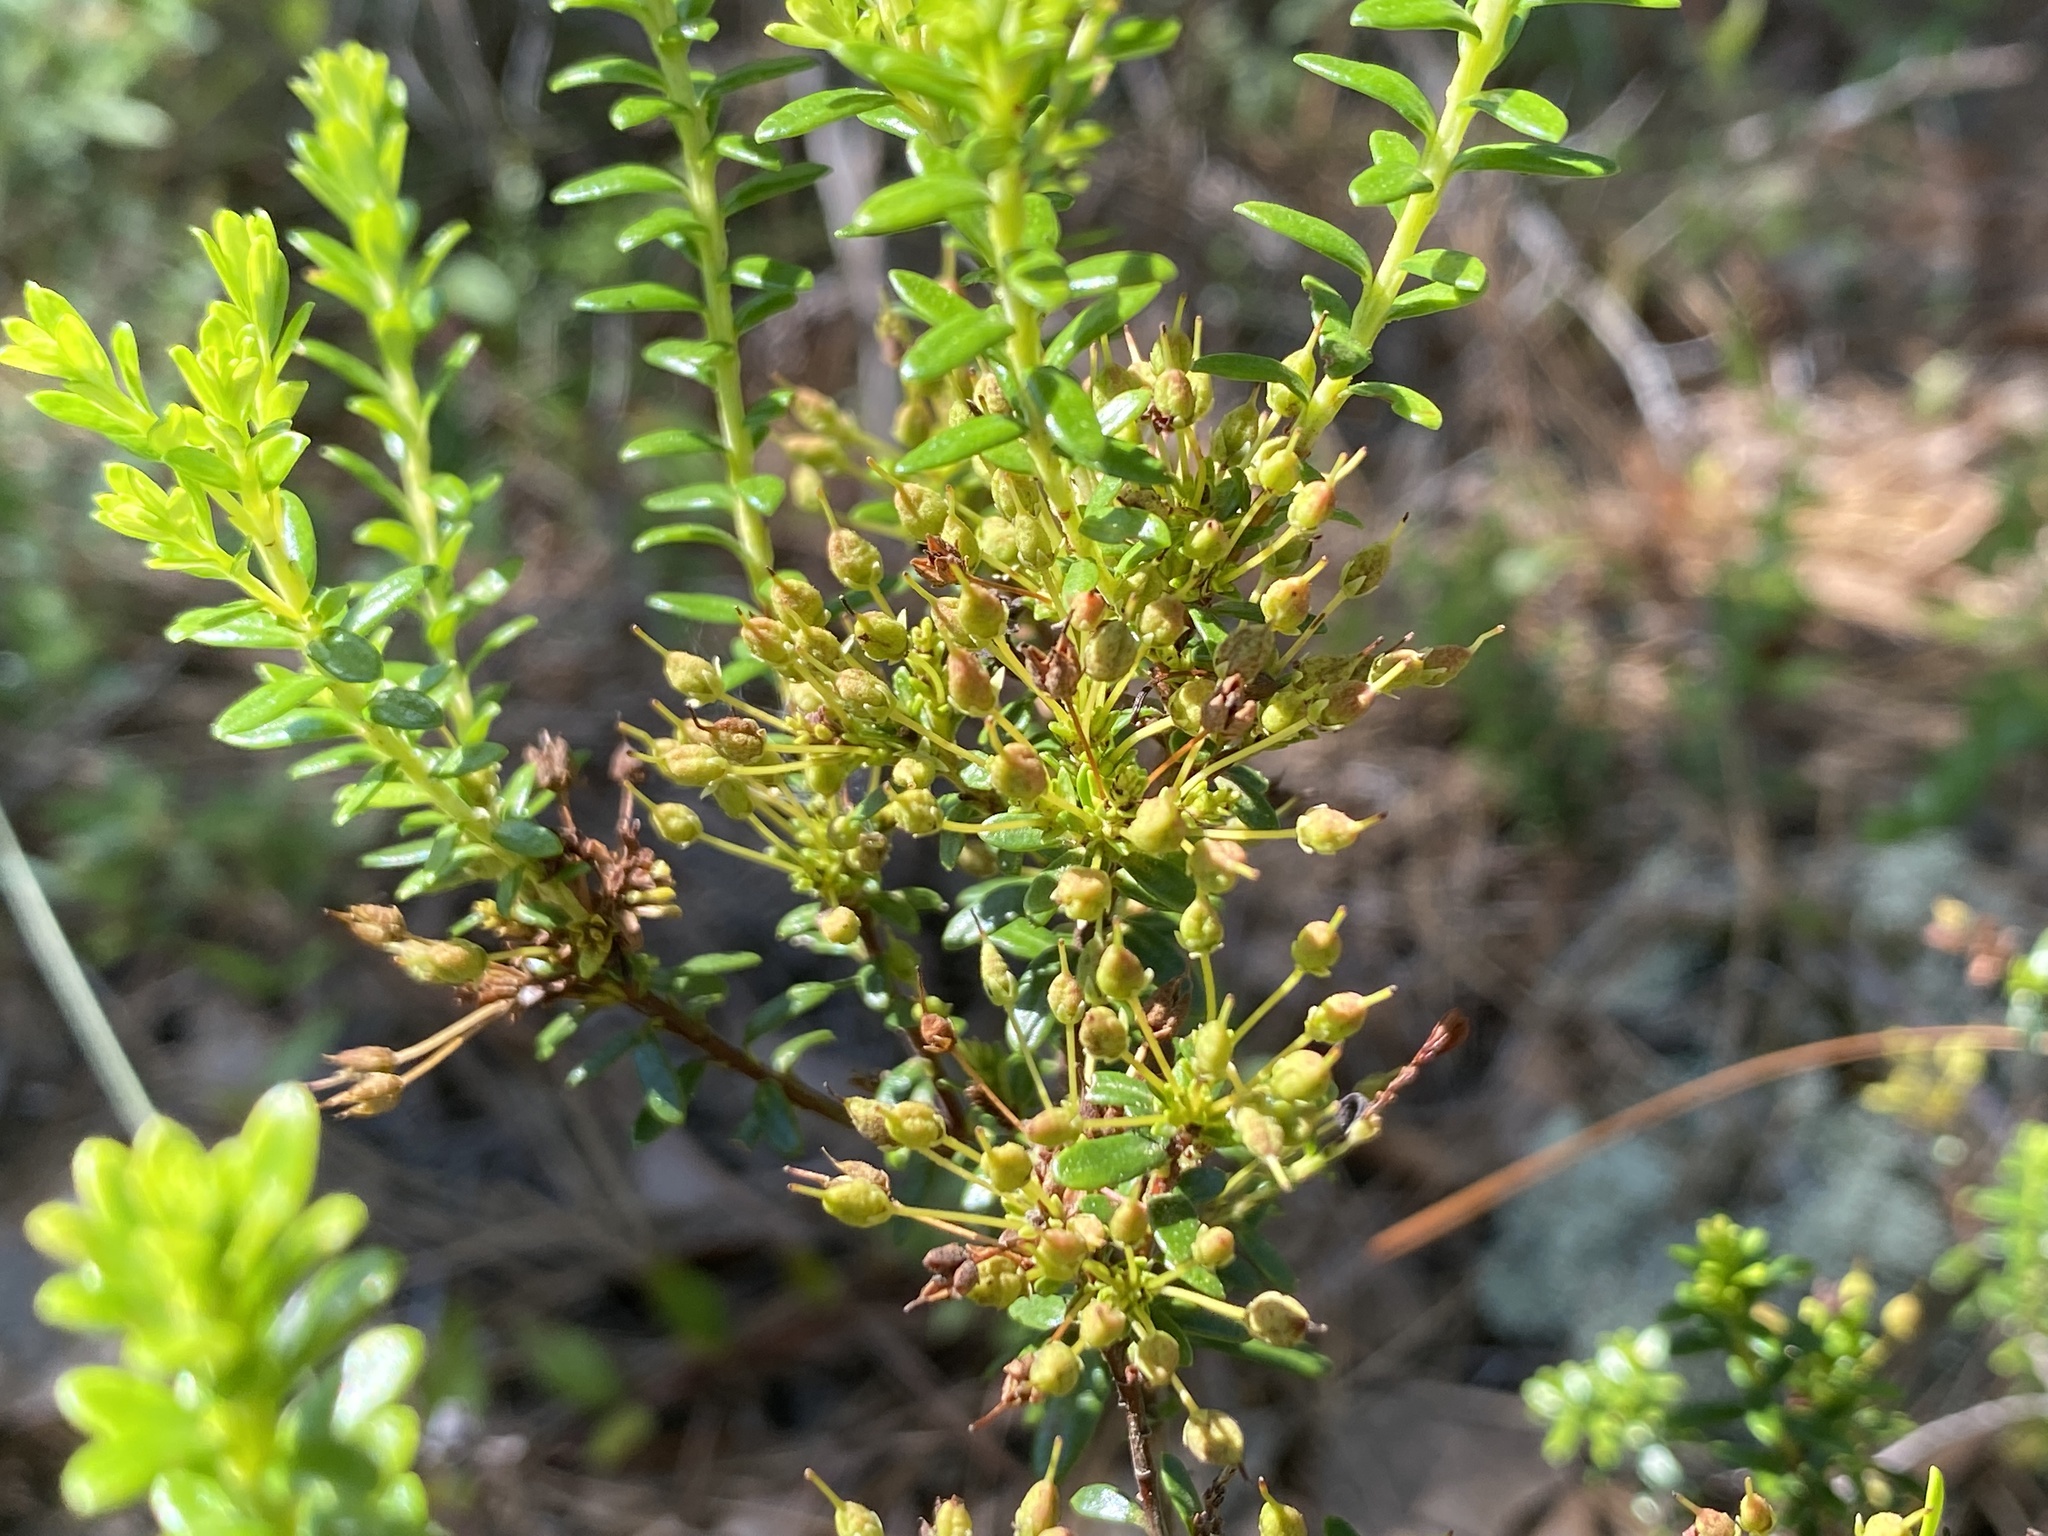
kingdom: Plantae
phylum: Tracheophyta
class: Magnoliopsida
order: Ericales
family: Ericaceae
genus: Kalmia
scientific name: Kalmia buxifolia
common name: Sandmyrtle
